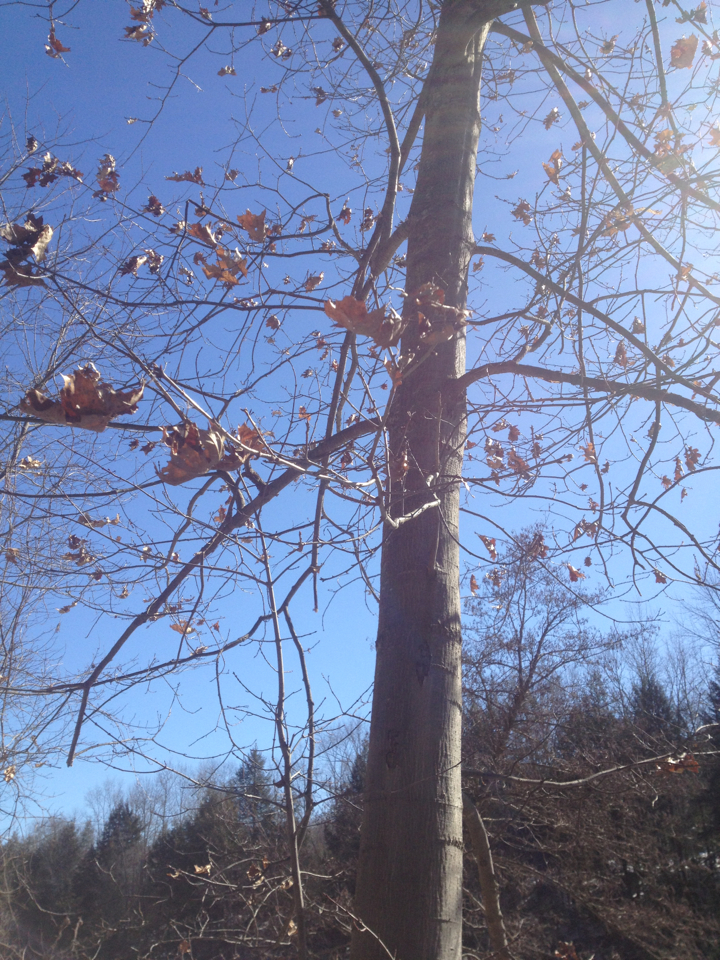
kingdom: Plantae
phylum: Tracheophyta
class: Magnoliopsida
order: Fagales
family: Fagaceae
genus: Quercus
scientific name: Quercus rubra
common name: Red oak
